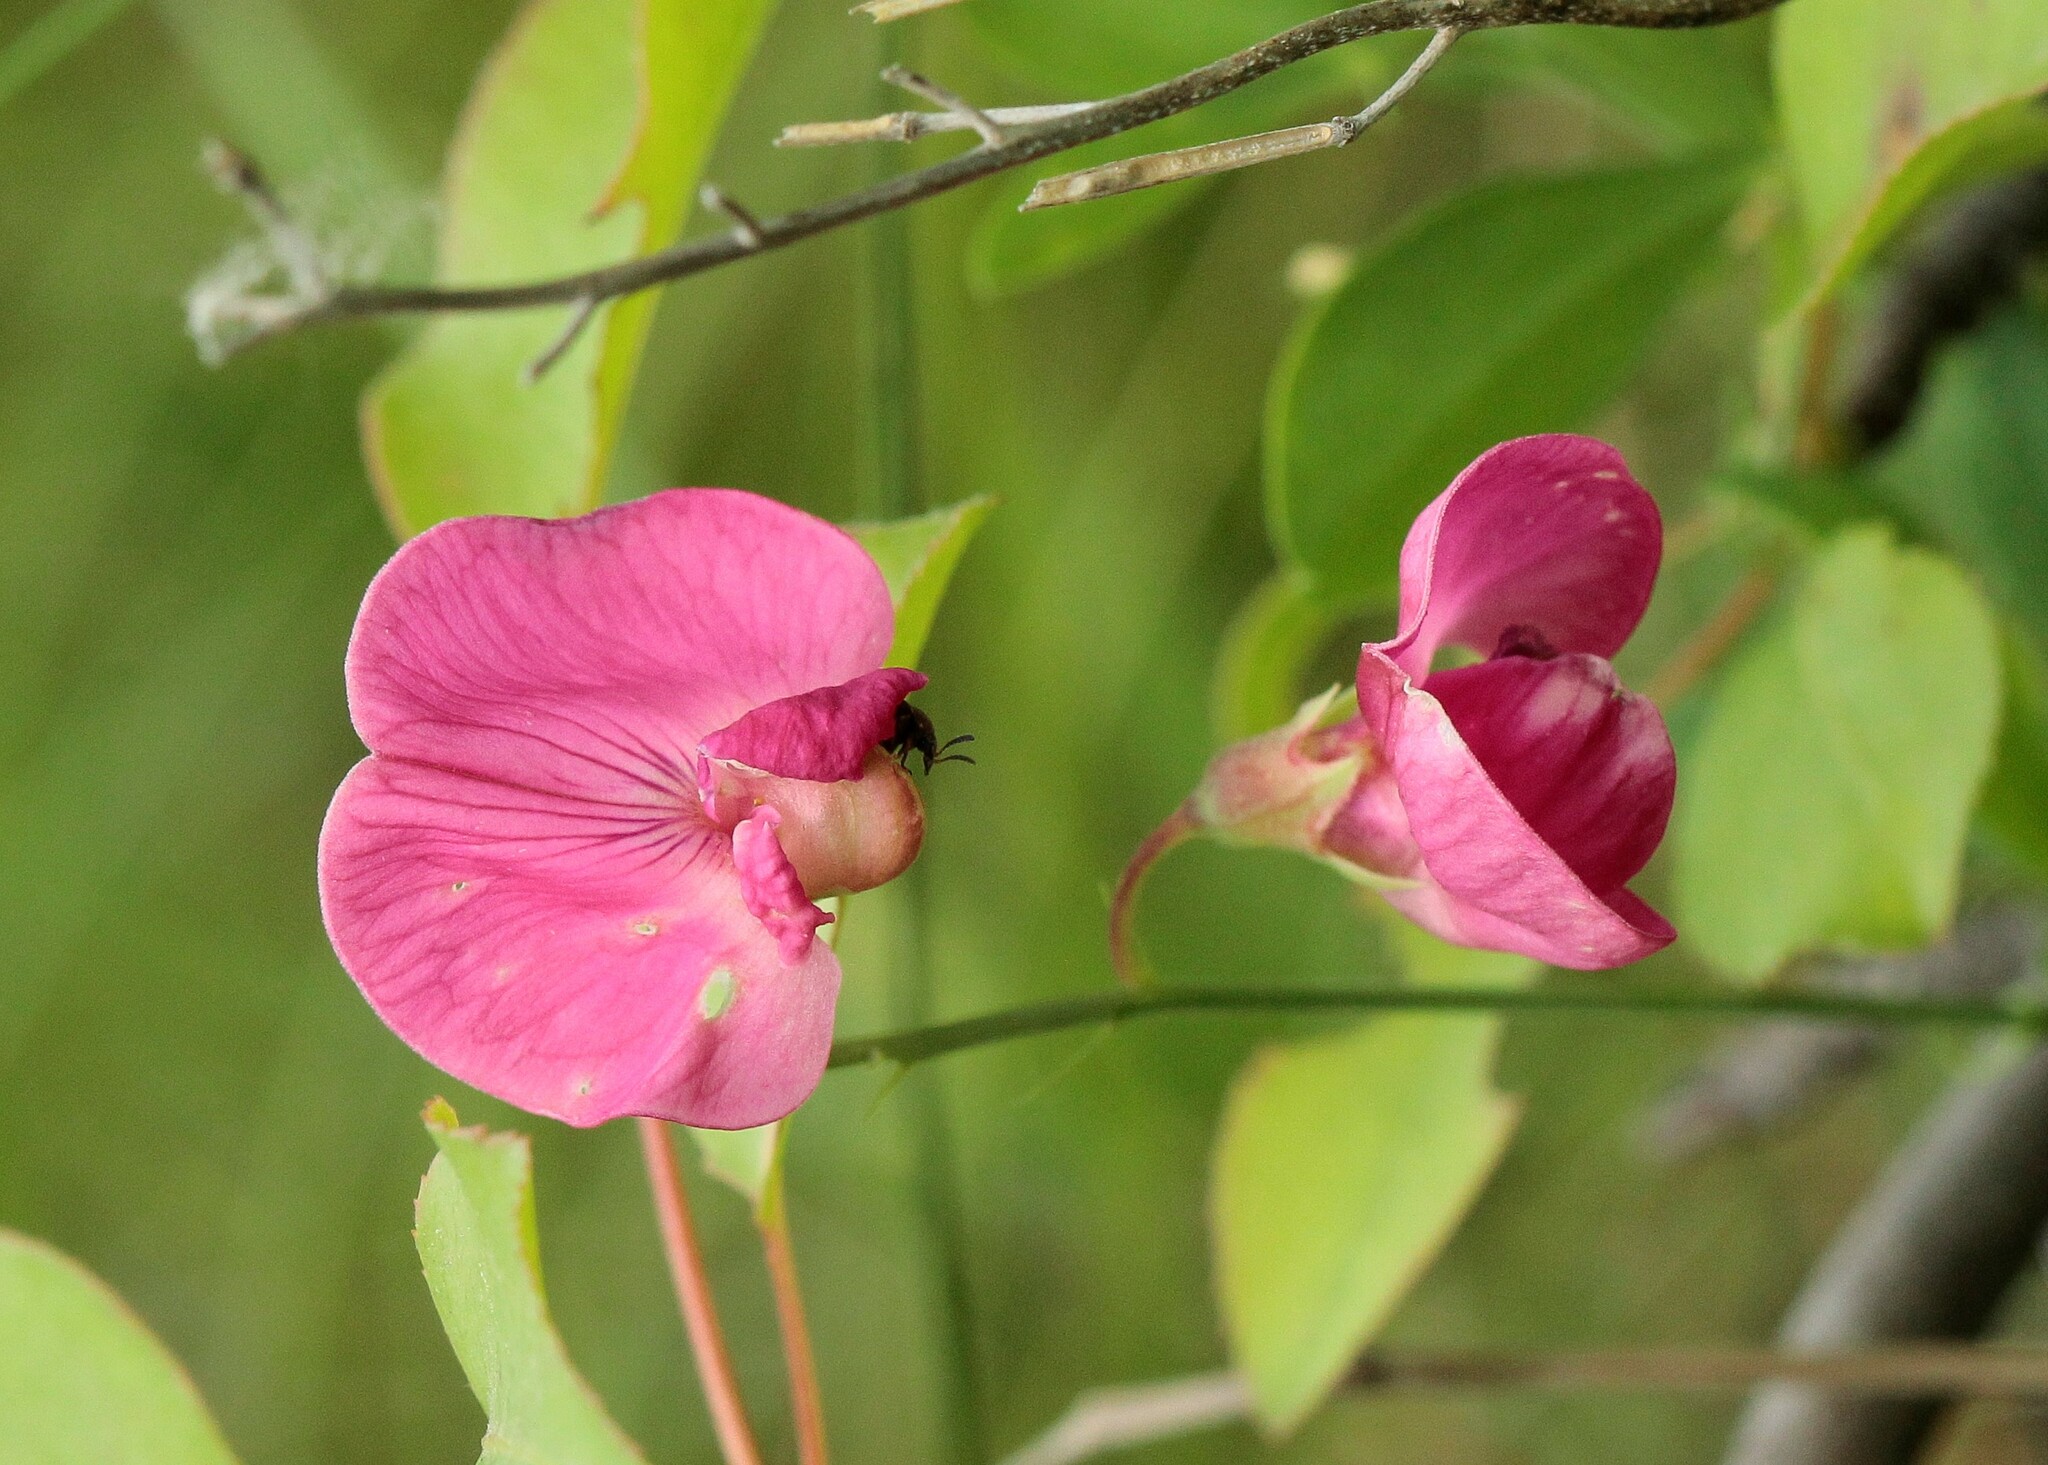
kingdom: Plantae
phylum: Tracheophyta
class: Magnoliopsida
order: Fabales
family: Fabaceae
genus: Lathyrus
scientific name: Lathyrus tuberosus
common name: Tuberous pea
